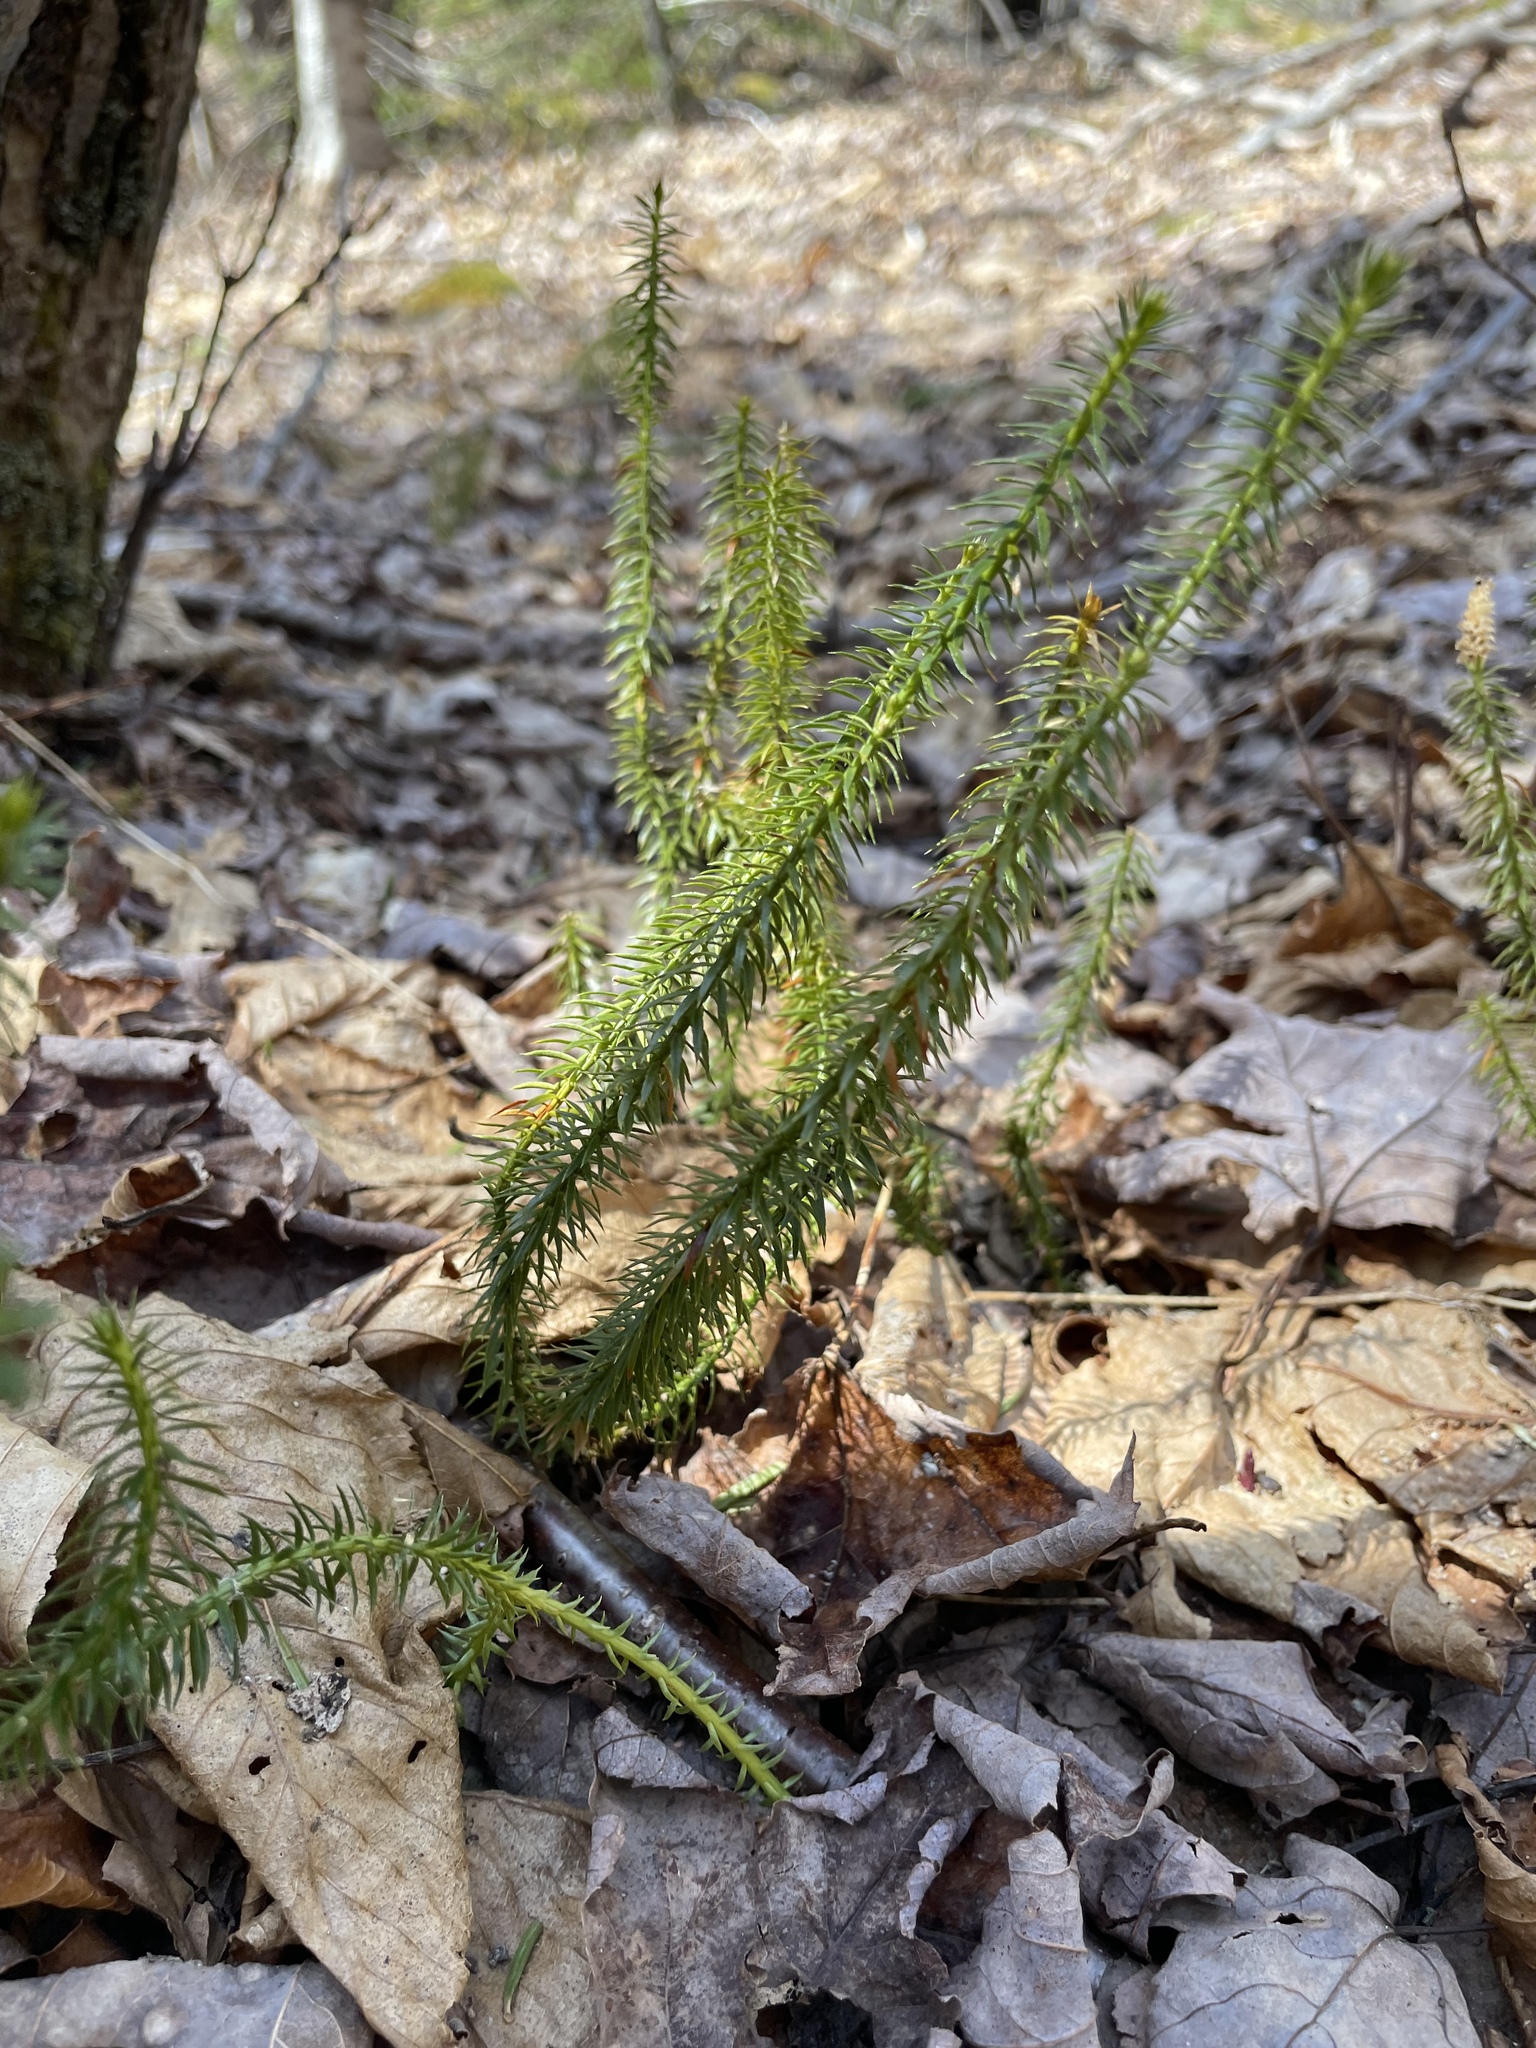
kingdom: Plantae
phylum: Tracheophyta
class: Lycopodiopsida
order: Lycopodiales
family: Lycopodiaceae
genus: Spinulum
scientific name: Spinulum annotinum
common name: Interrupted club-moss
